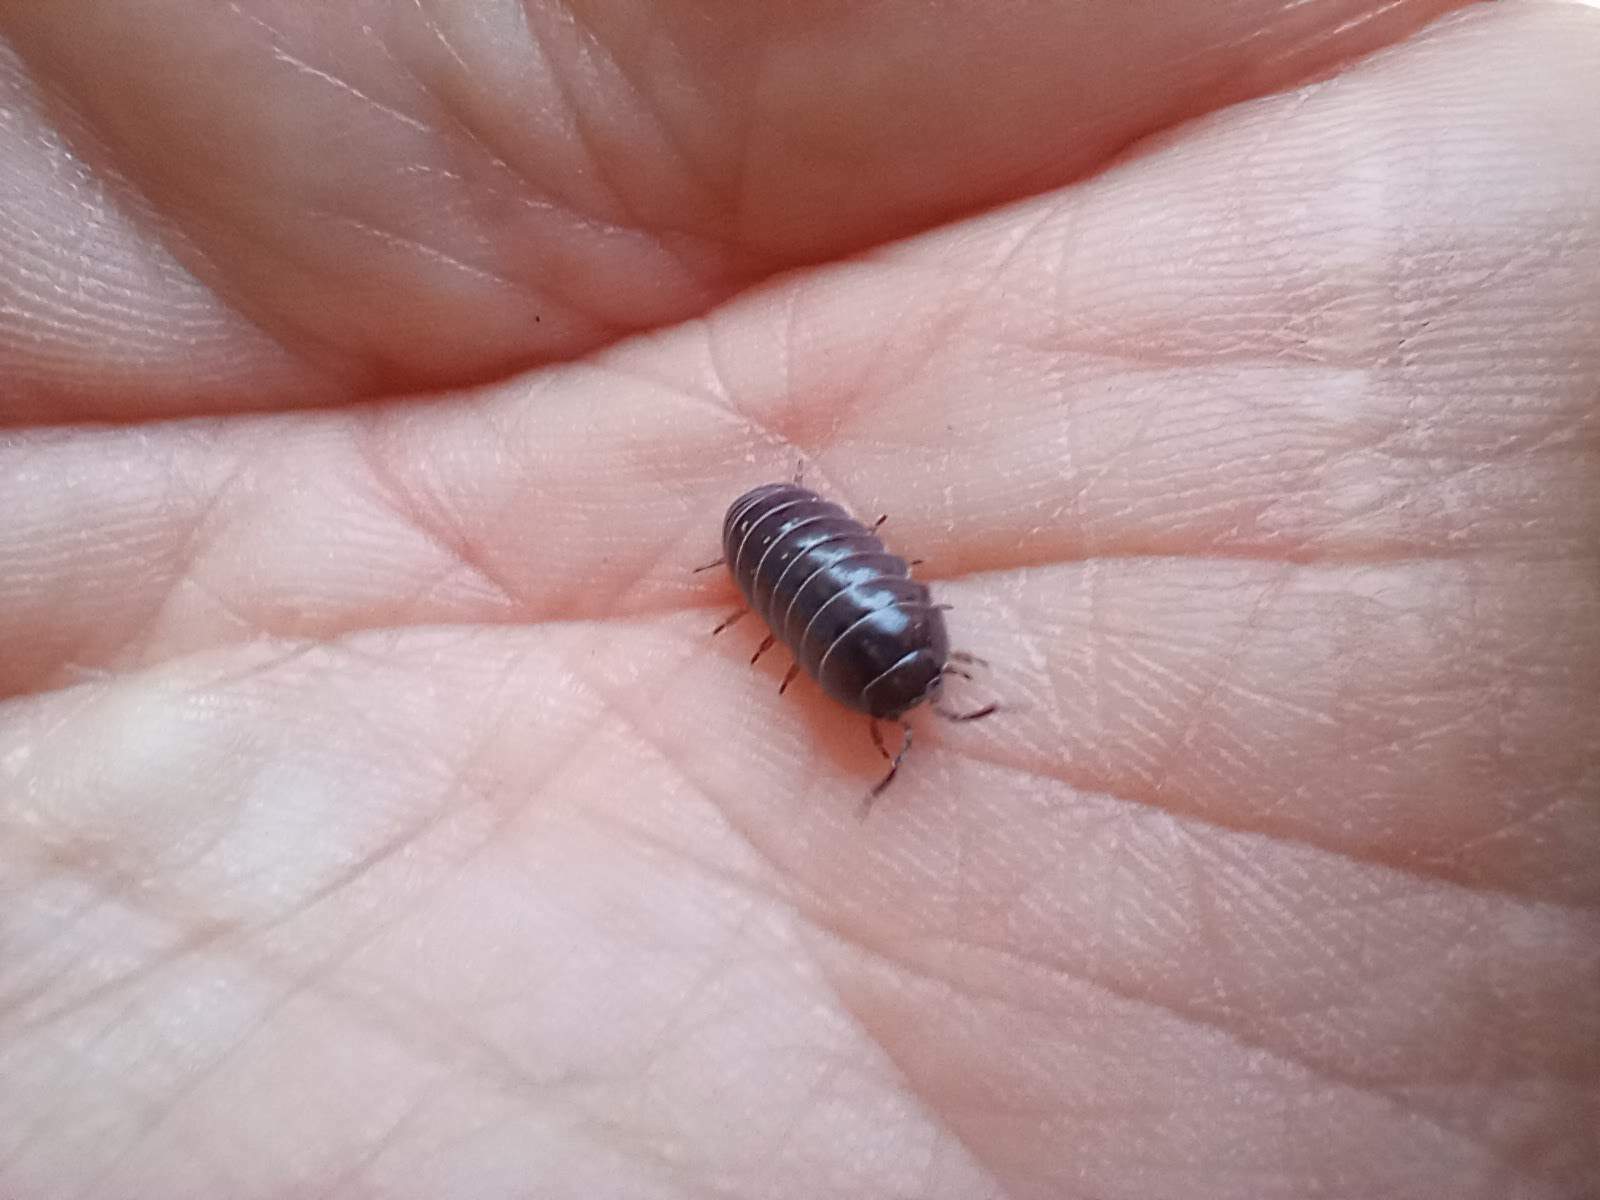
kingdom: Animalia
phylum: Arthropoda
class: Malacostraca
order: Isopoda
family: Armadillidiidae
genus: Armadillidium
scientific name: Armadillidium vulgare
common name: Common pill woodlouse
